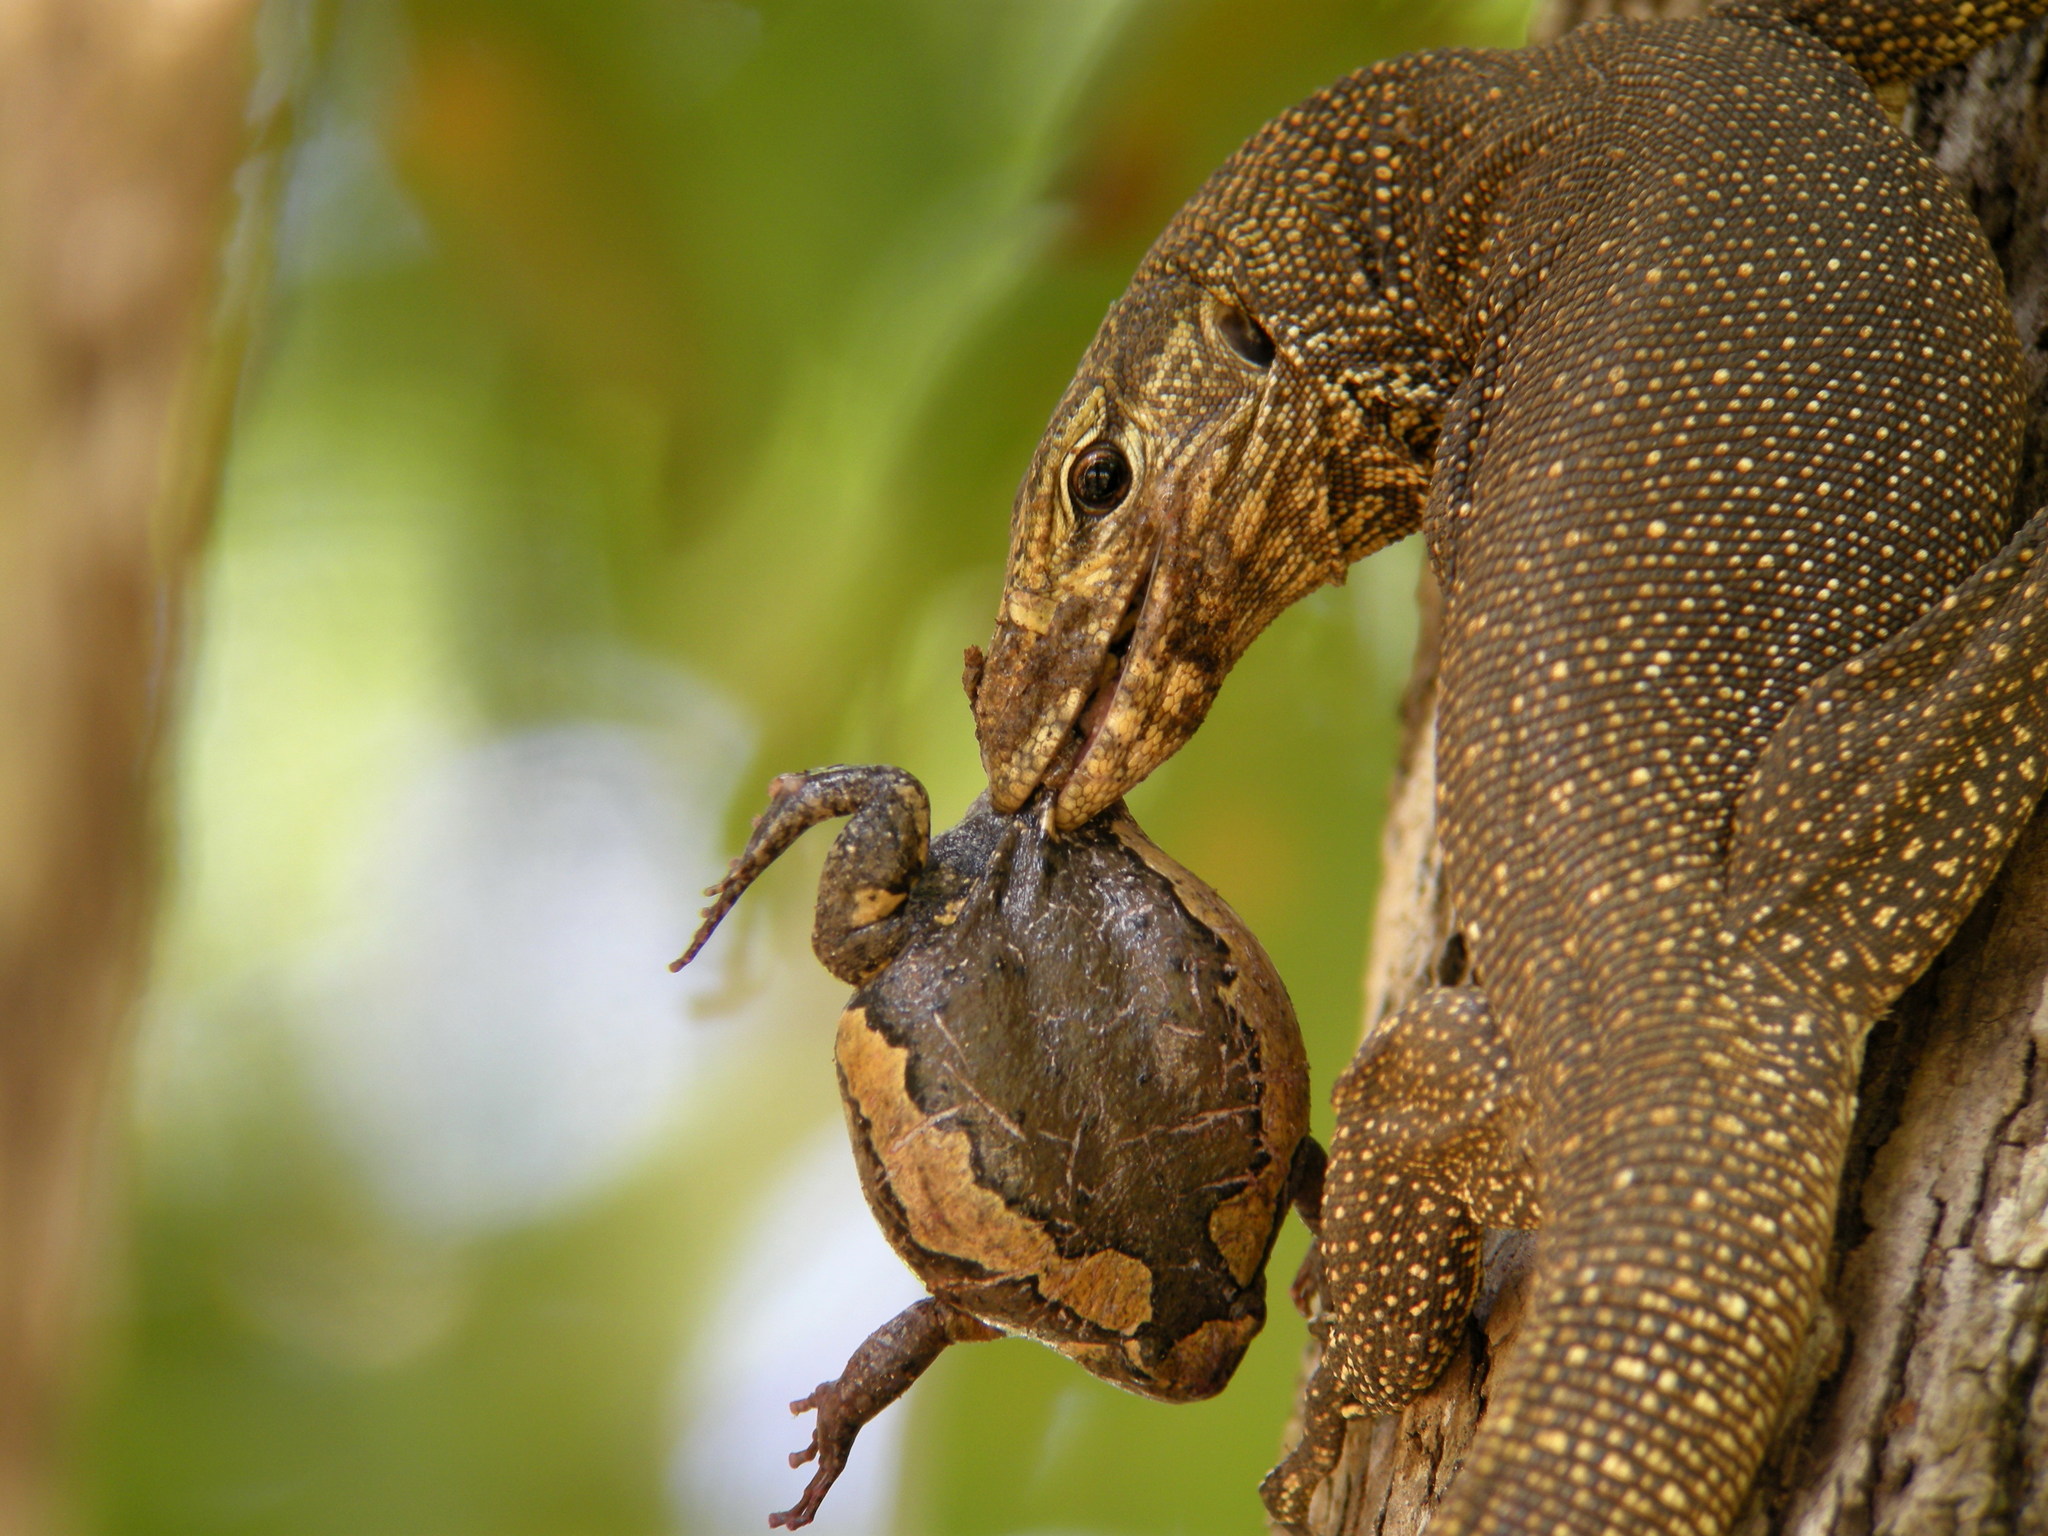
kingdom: Animalia
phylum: Chordata
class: Squamata
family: Varanidae
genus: Varanus
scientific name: Varanus nebulosus
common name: Clouded monitor
